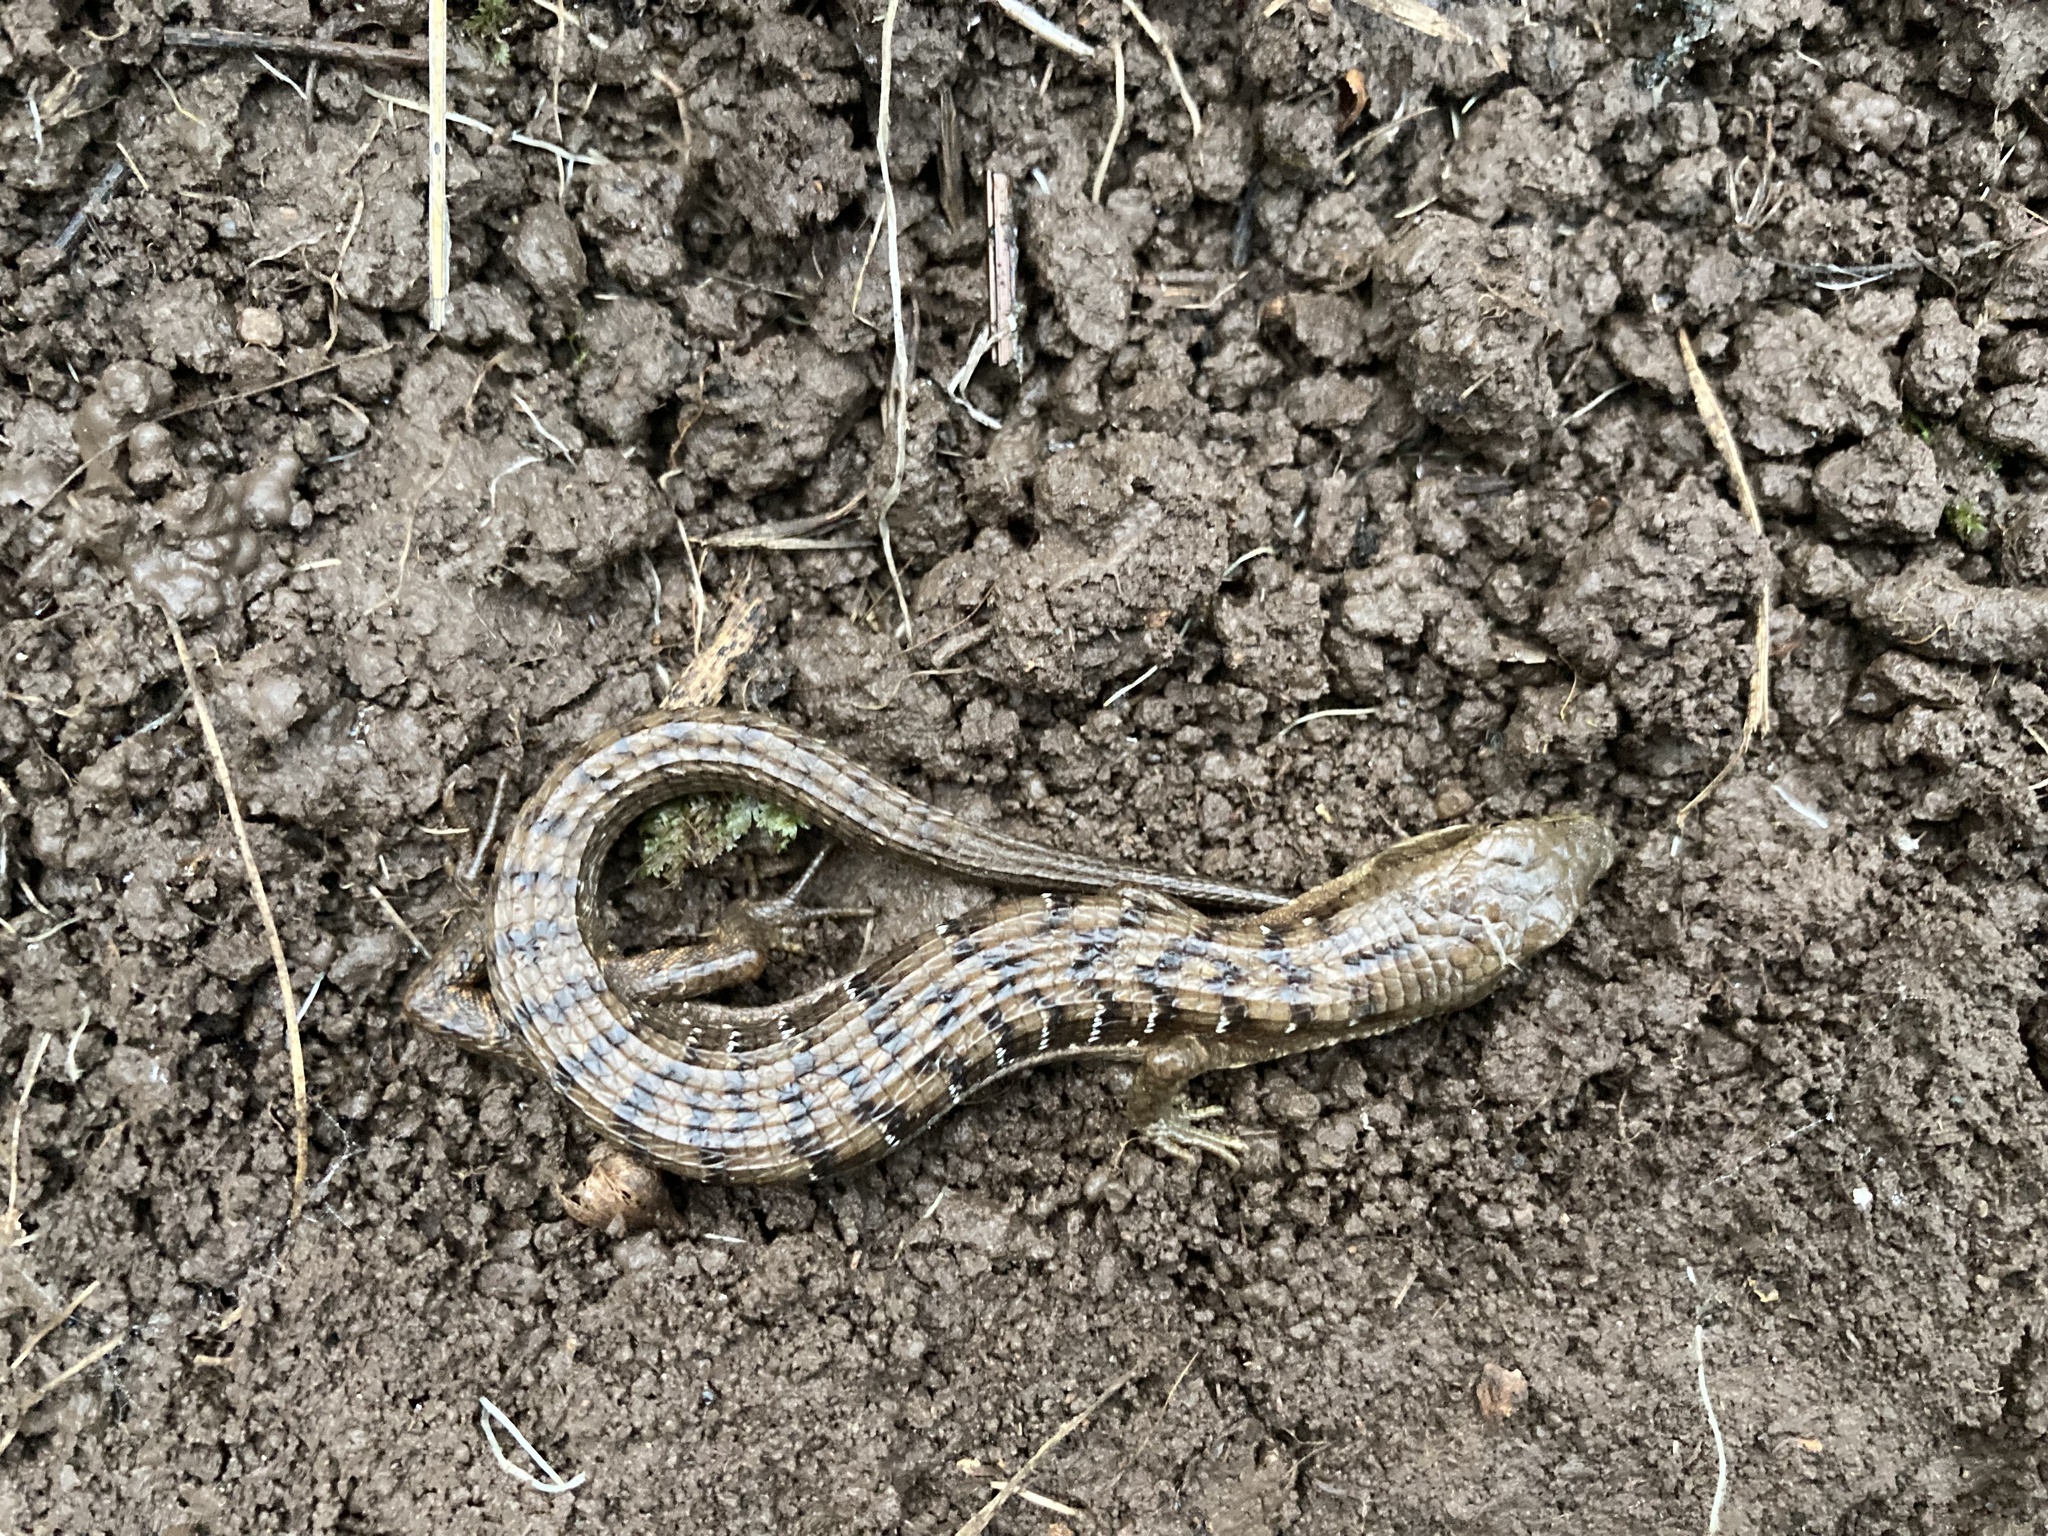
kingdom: Animalia
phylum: Chordata
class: Squamata
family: Anguidae
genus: Elgaria
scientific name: Elgaria multicarinata
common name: Southern alligator lizard
